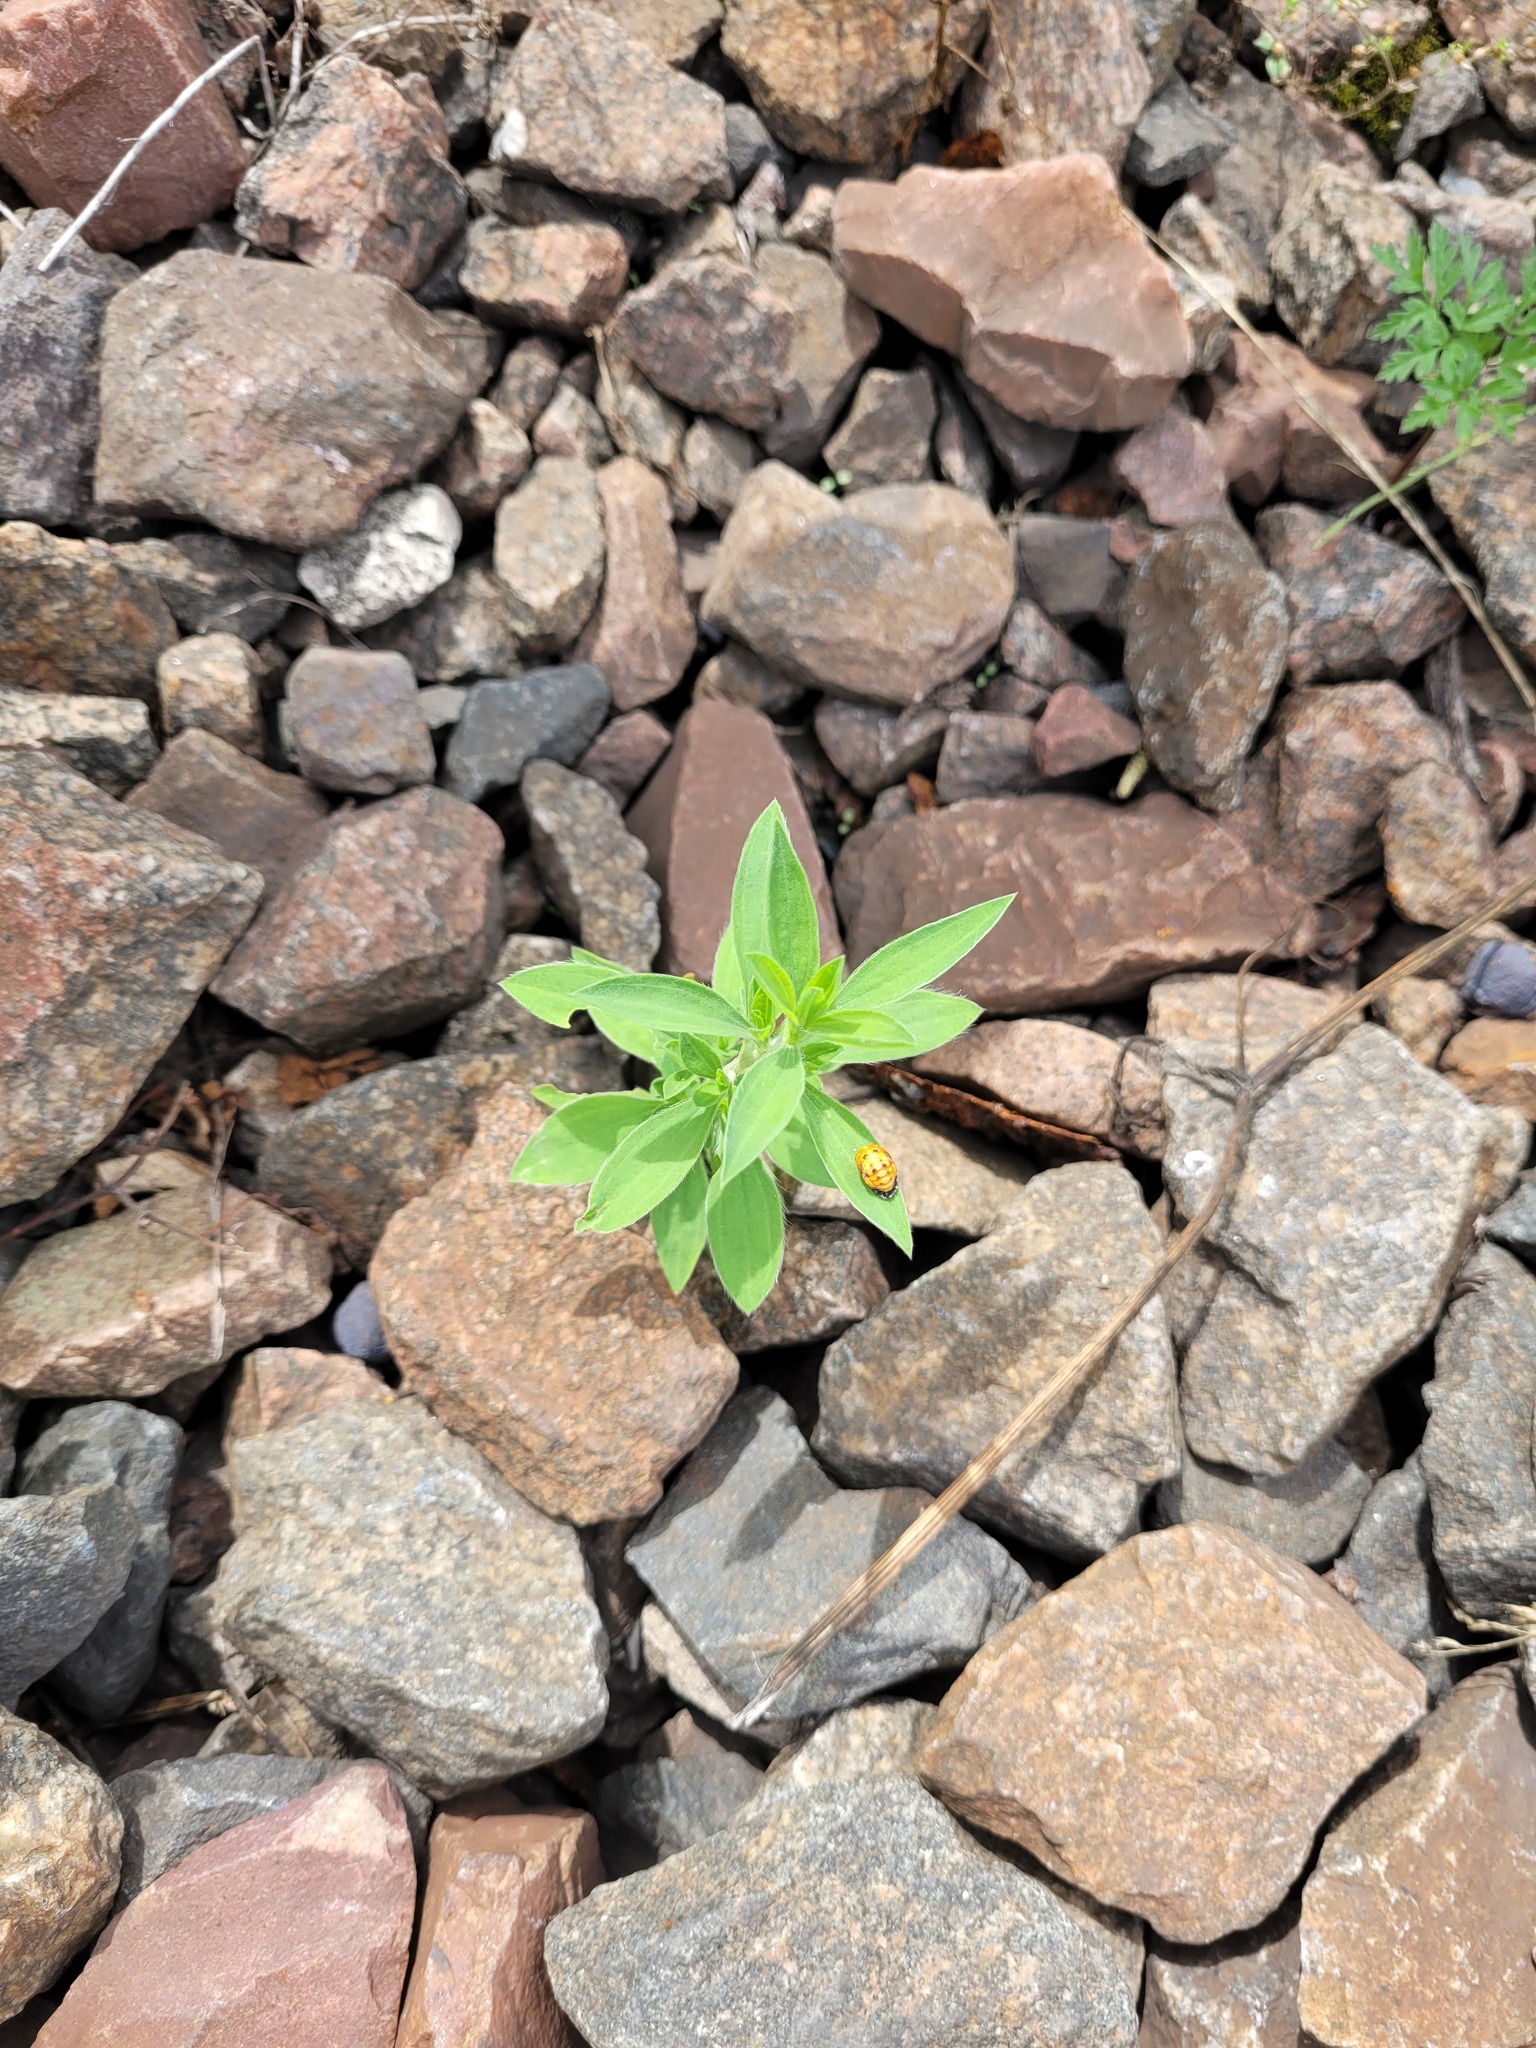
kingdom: Plantae
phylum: Tracheophyta
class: Magnoliopsida
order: Caryophyllales
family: Amaranthaceae
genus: Bassia
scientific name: Bassia scoparia
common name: Belvedere
